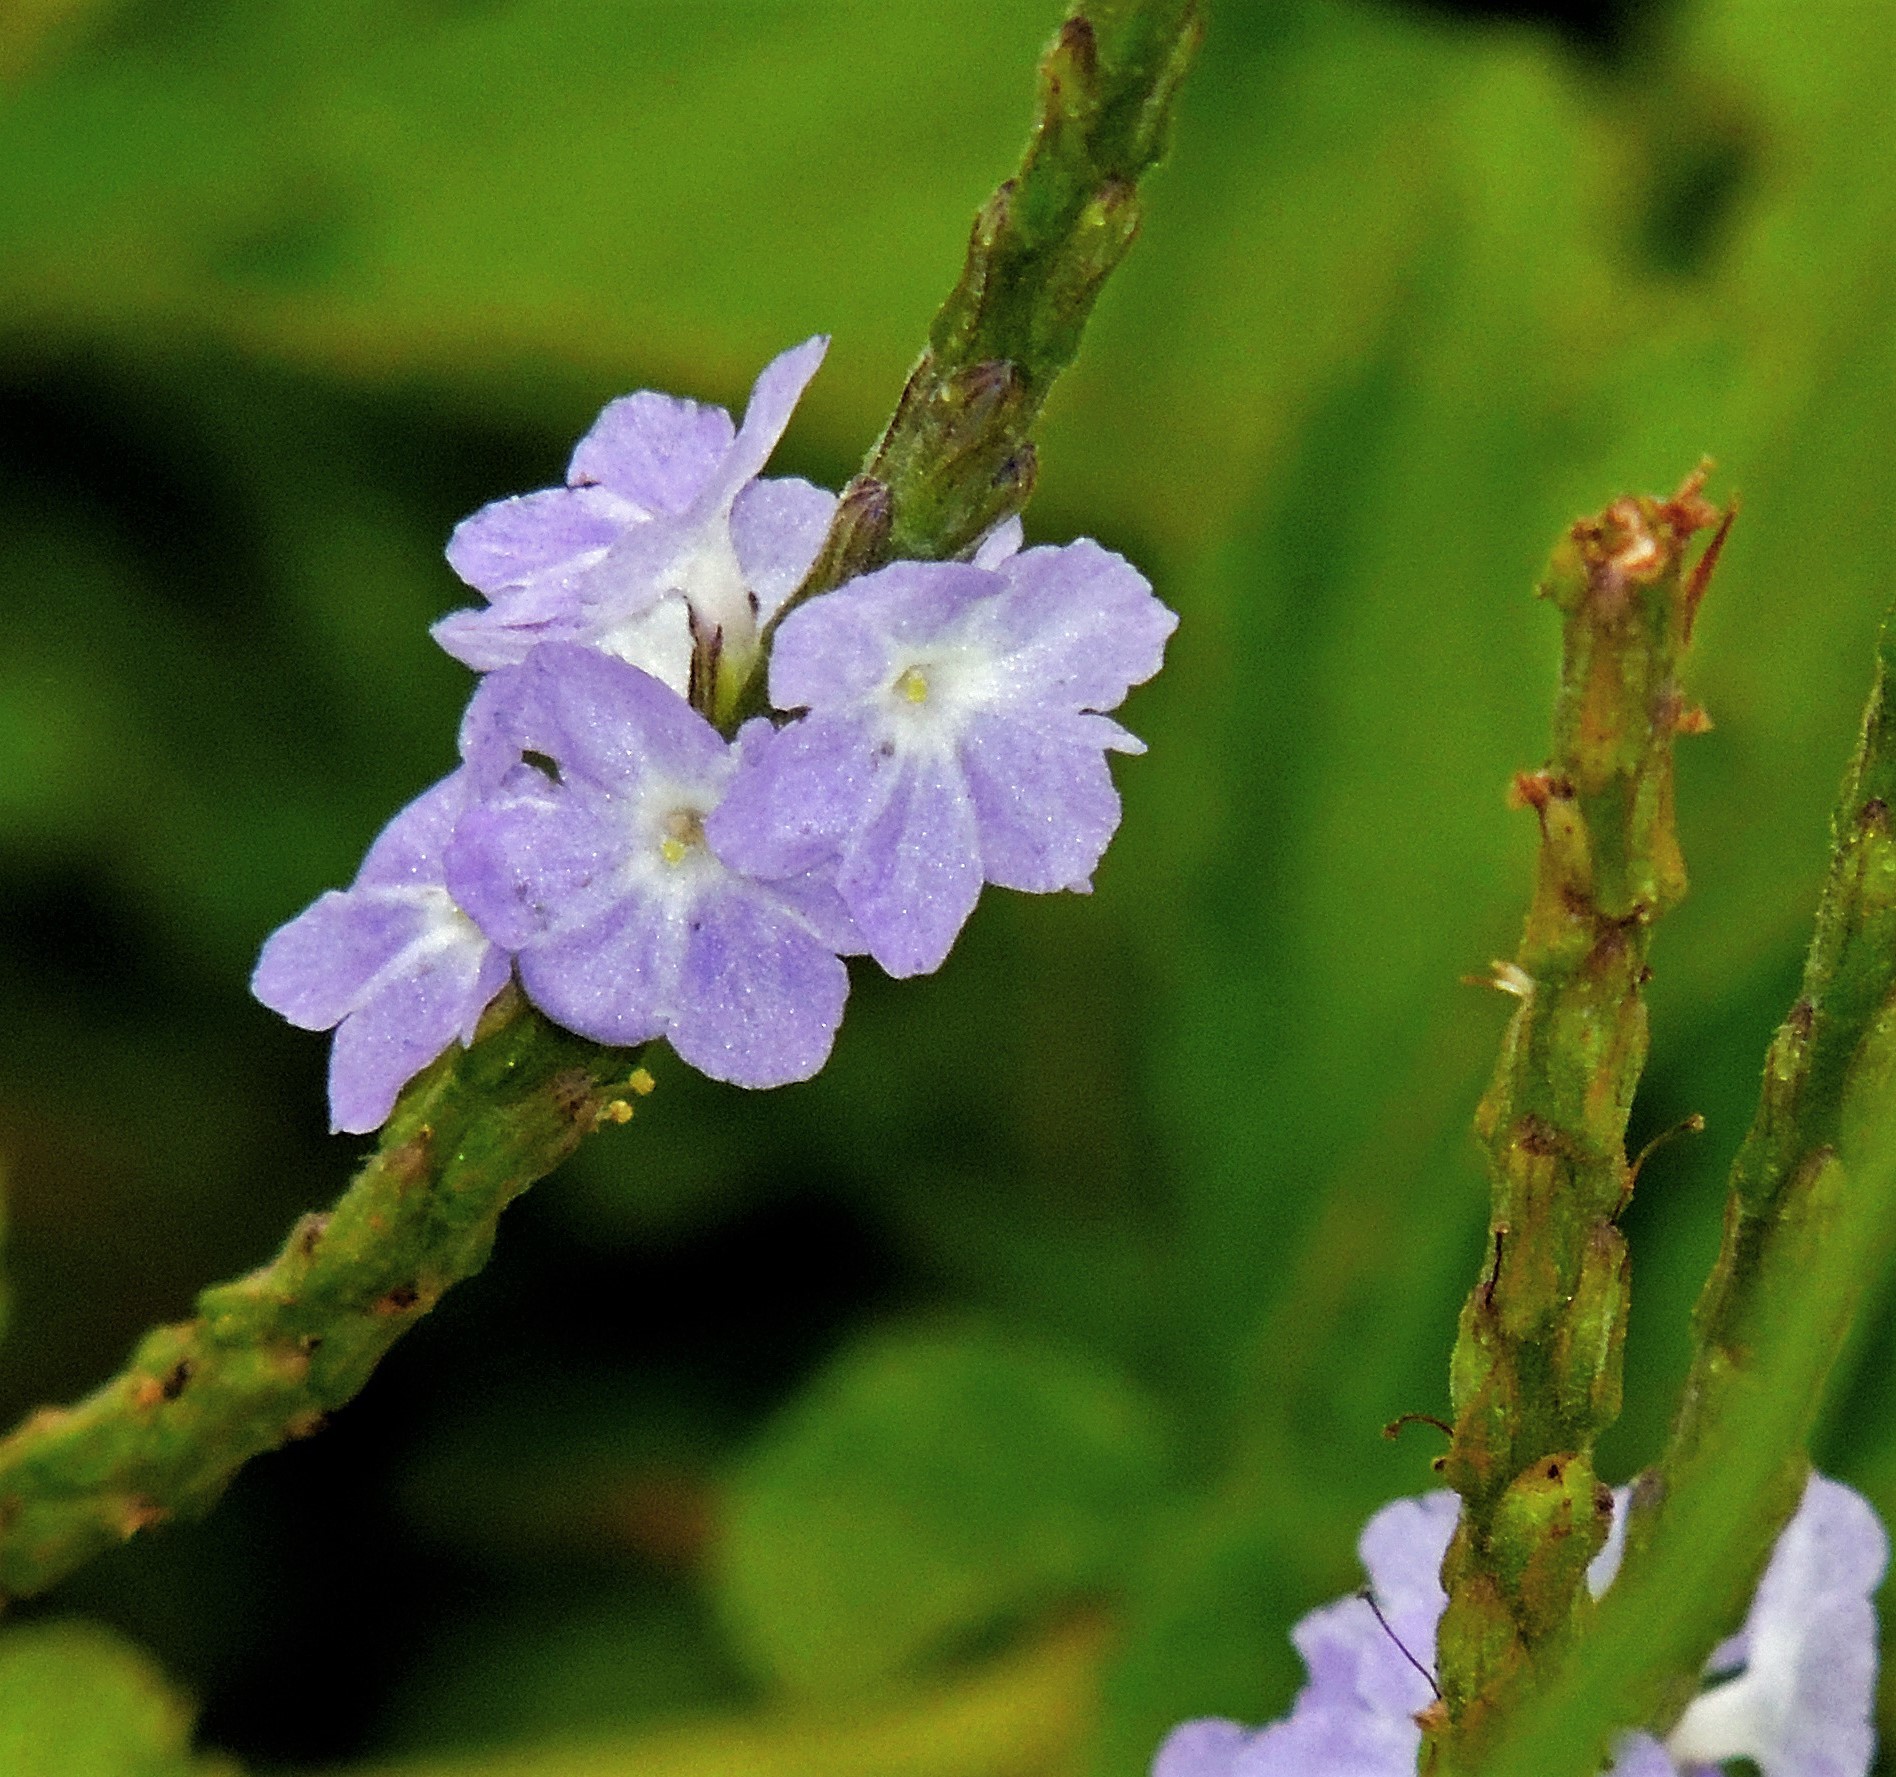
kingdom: Plantae
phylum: Tracheophyta
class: Magnoliopsida
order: Lamiales
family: Verbenaceae
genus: Stachytarpheta
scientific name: Stachytarpheta cayennensis
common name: Cayenne porterweed
